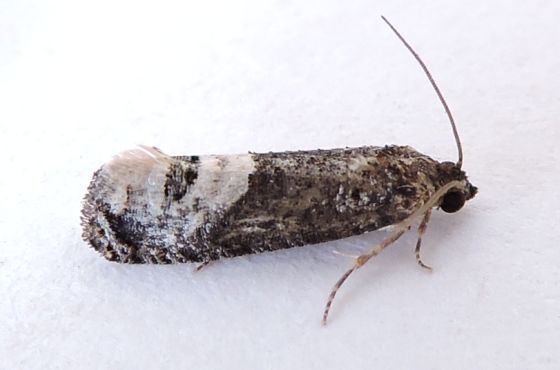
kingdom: Animalia
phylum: Arthropoda
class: Insecta
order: Lepidoptera
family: Tortricidae
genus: Ecdytolopha
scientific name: Ecdytolopha occidentana
